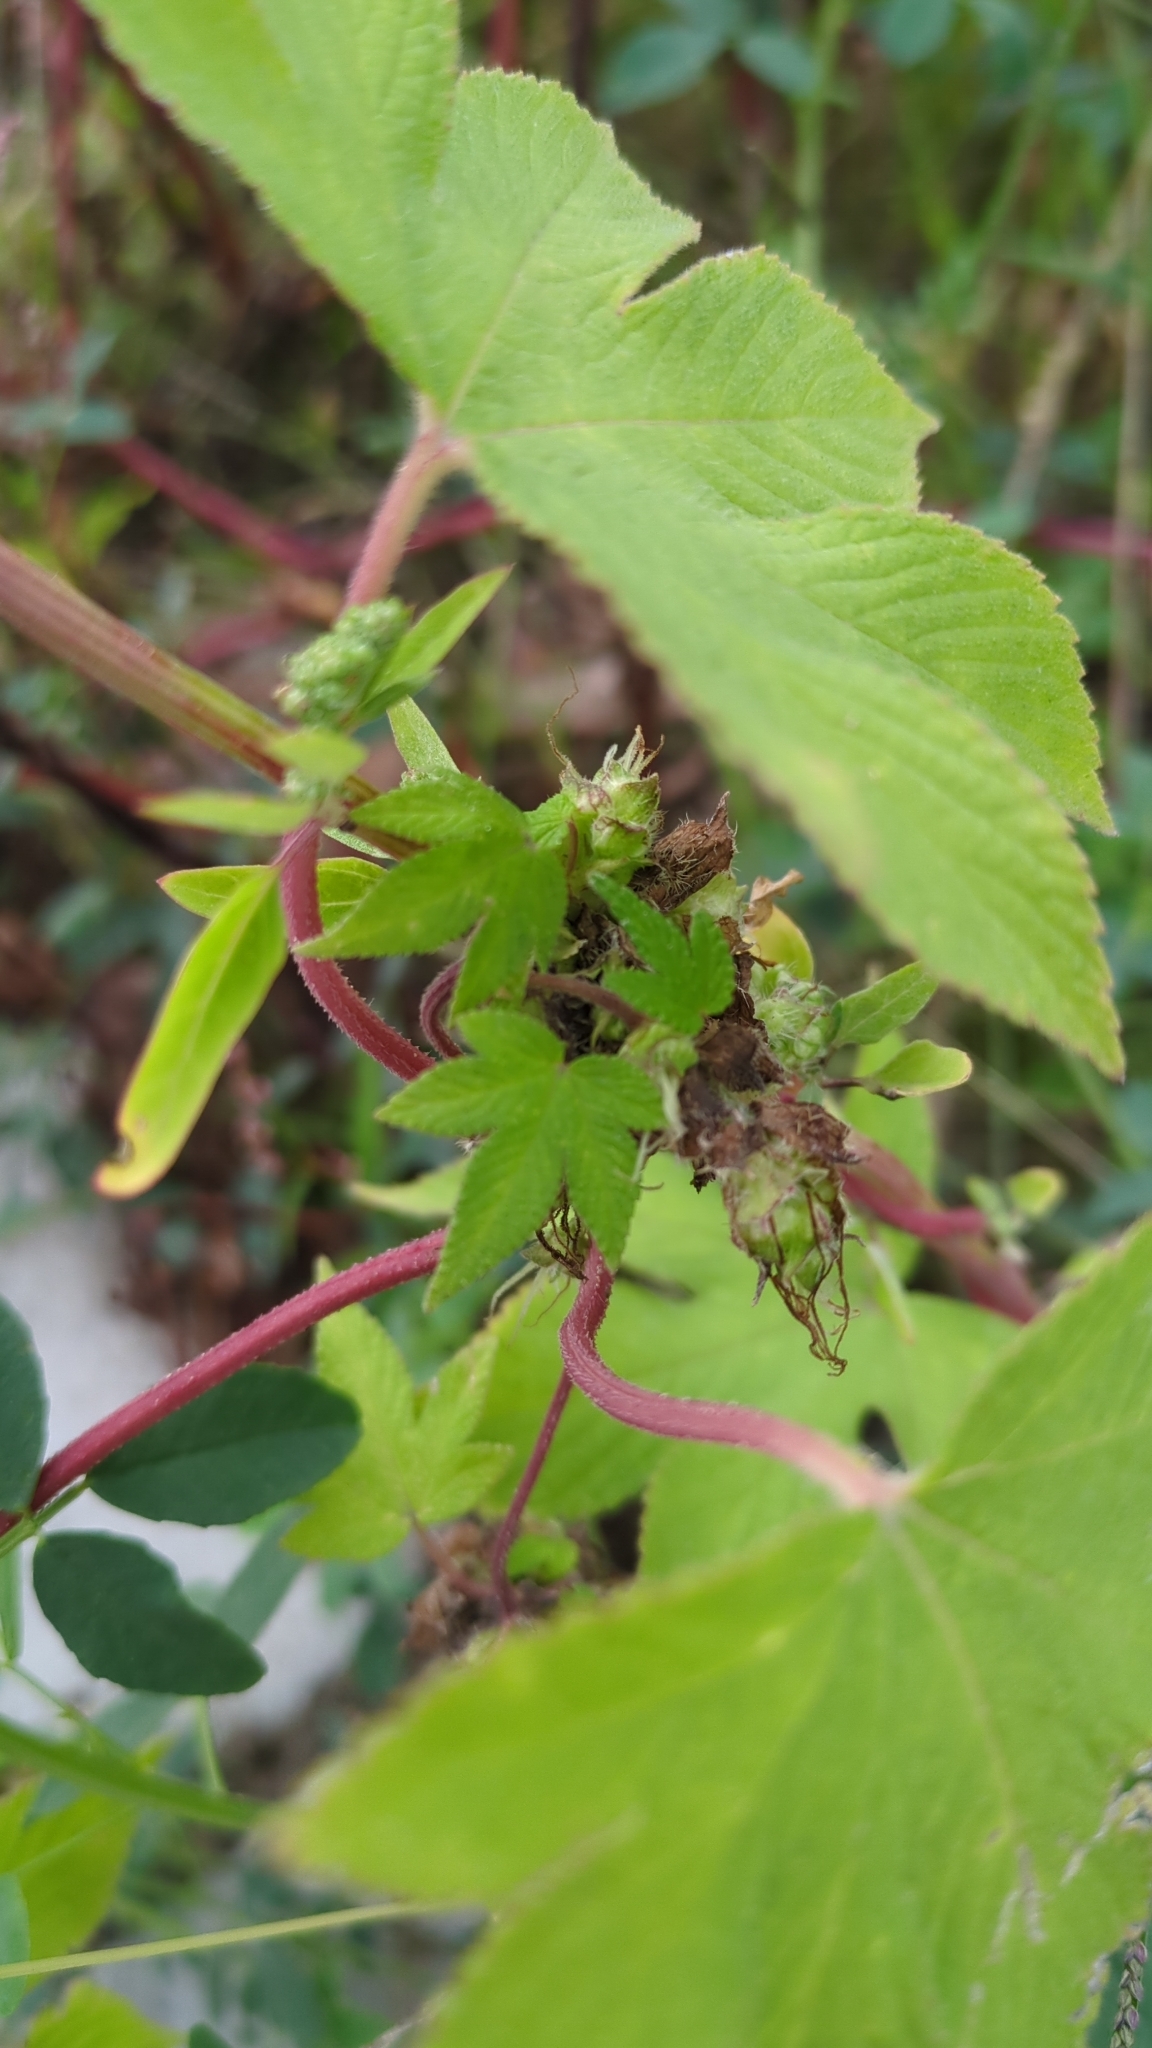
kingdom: Plantae
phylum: Tracheophyta
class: Magnoliopsida
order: Rosales
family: Cannabaceae
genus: Humulus
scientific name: Humulus scandens
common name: Japanese hop
